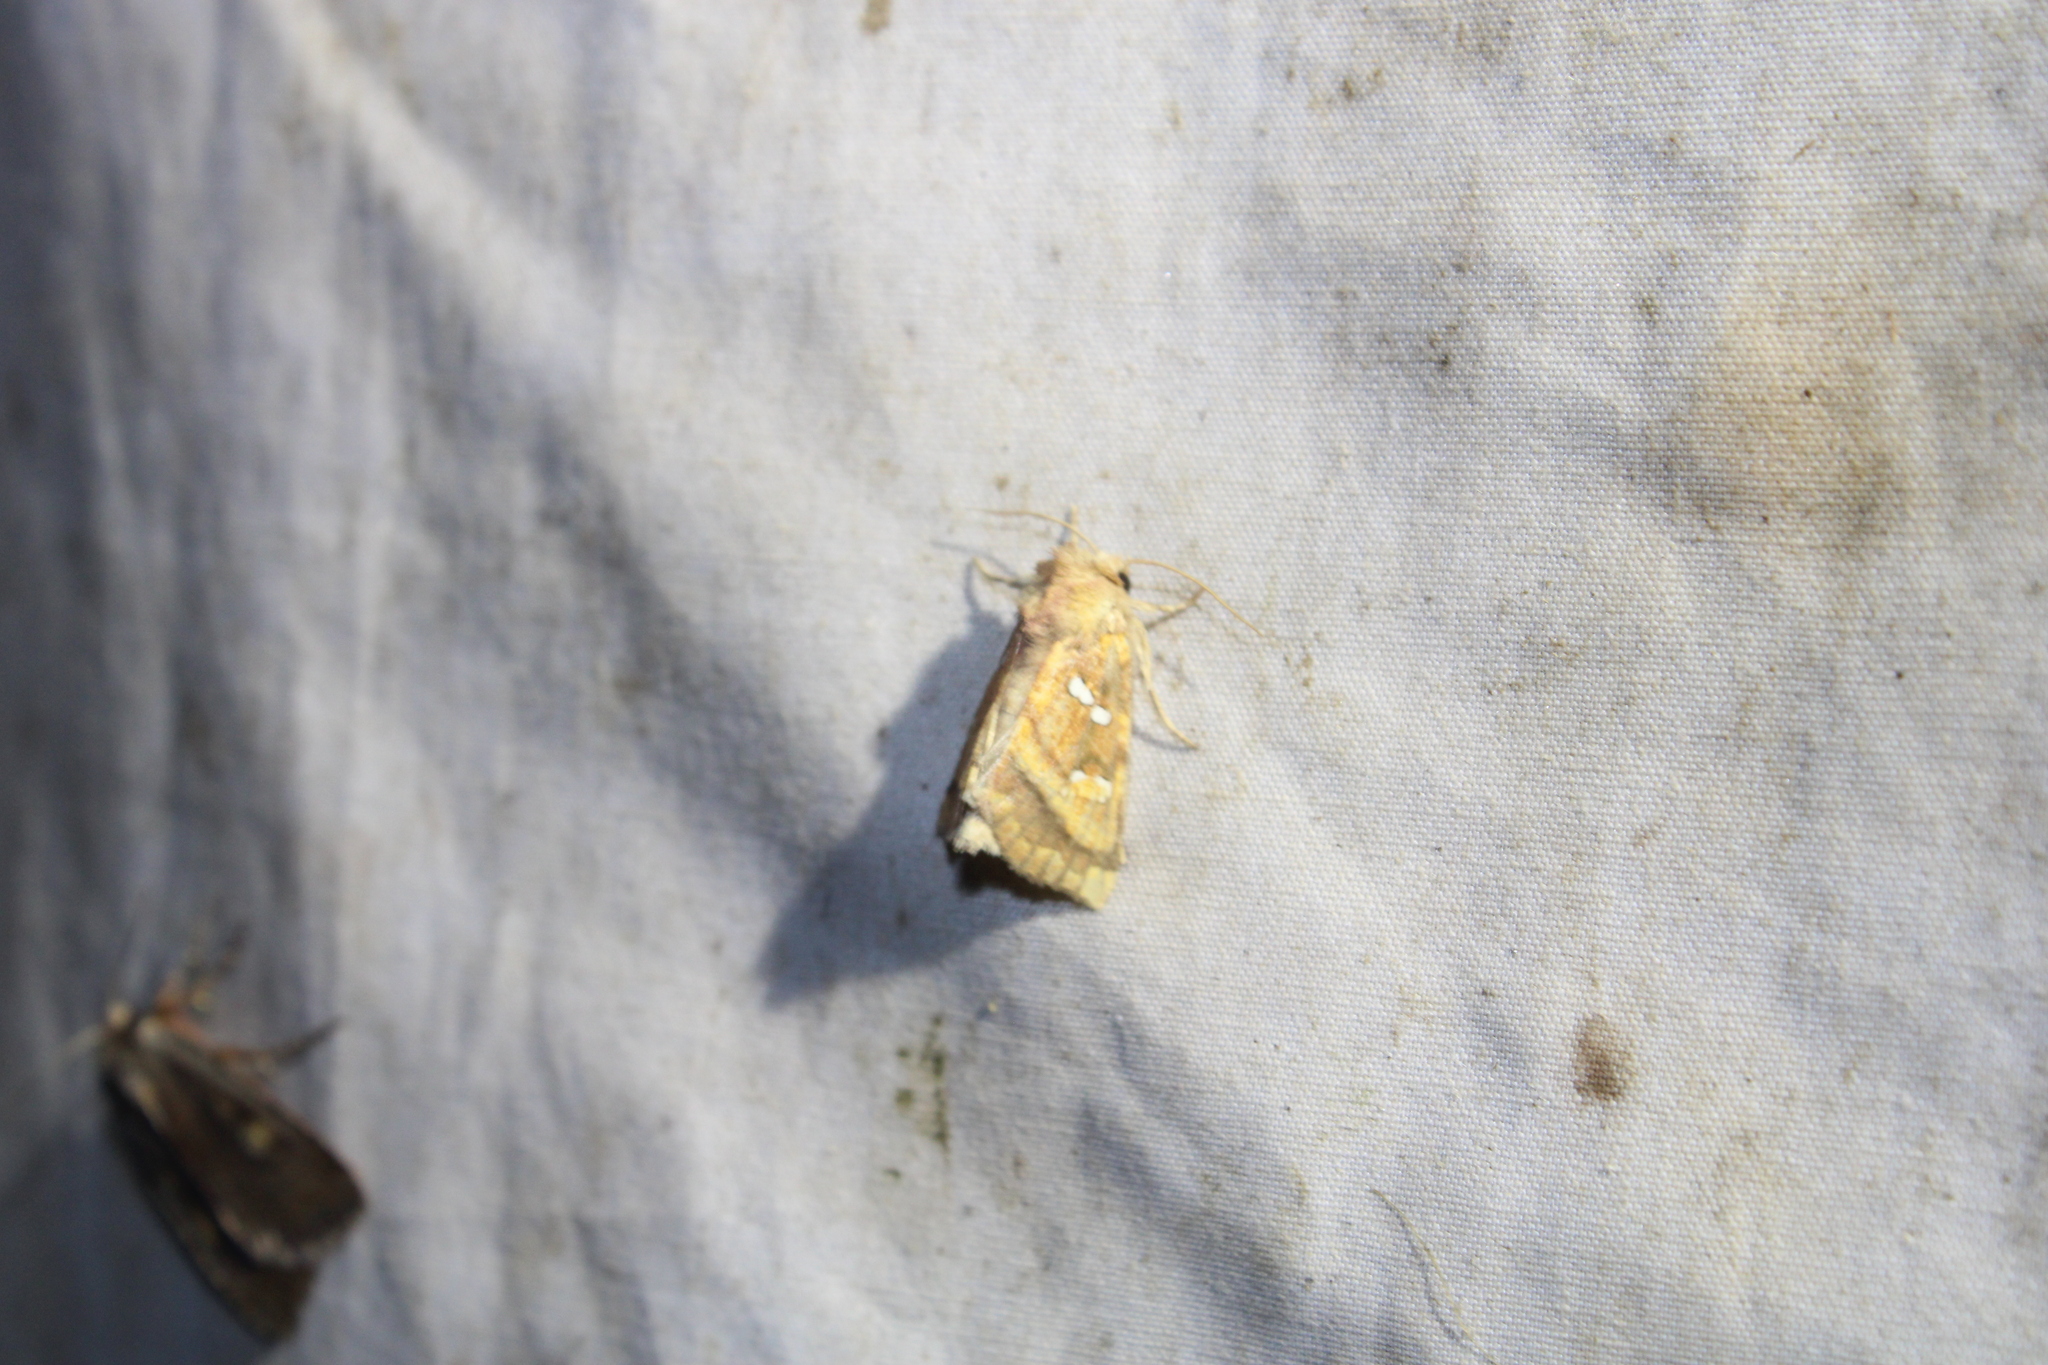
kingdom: Animalia
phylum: Arthropoda
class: Insecta
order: Lepidoptera
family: Noctuidae
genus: Papaipema
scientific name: Papaipema pterisii
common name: Bracken borer moth
